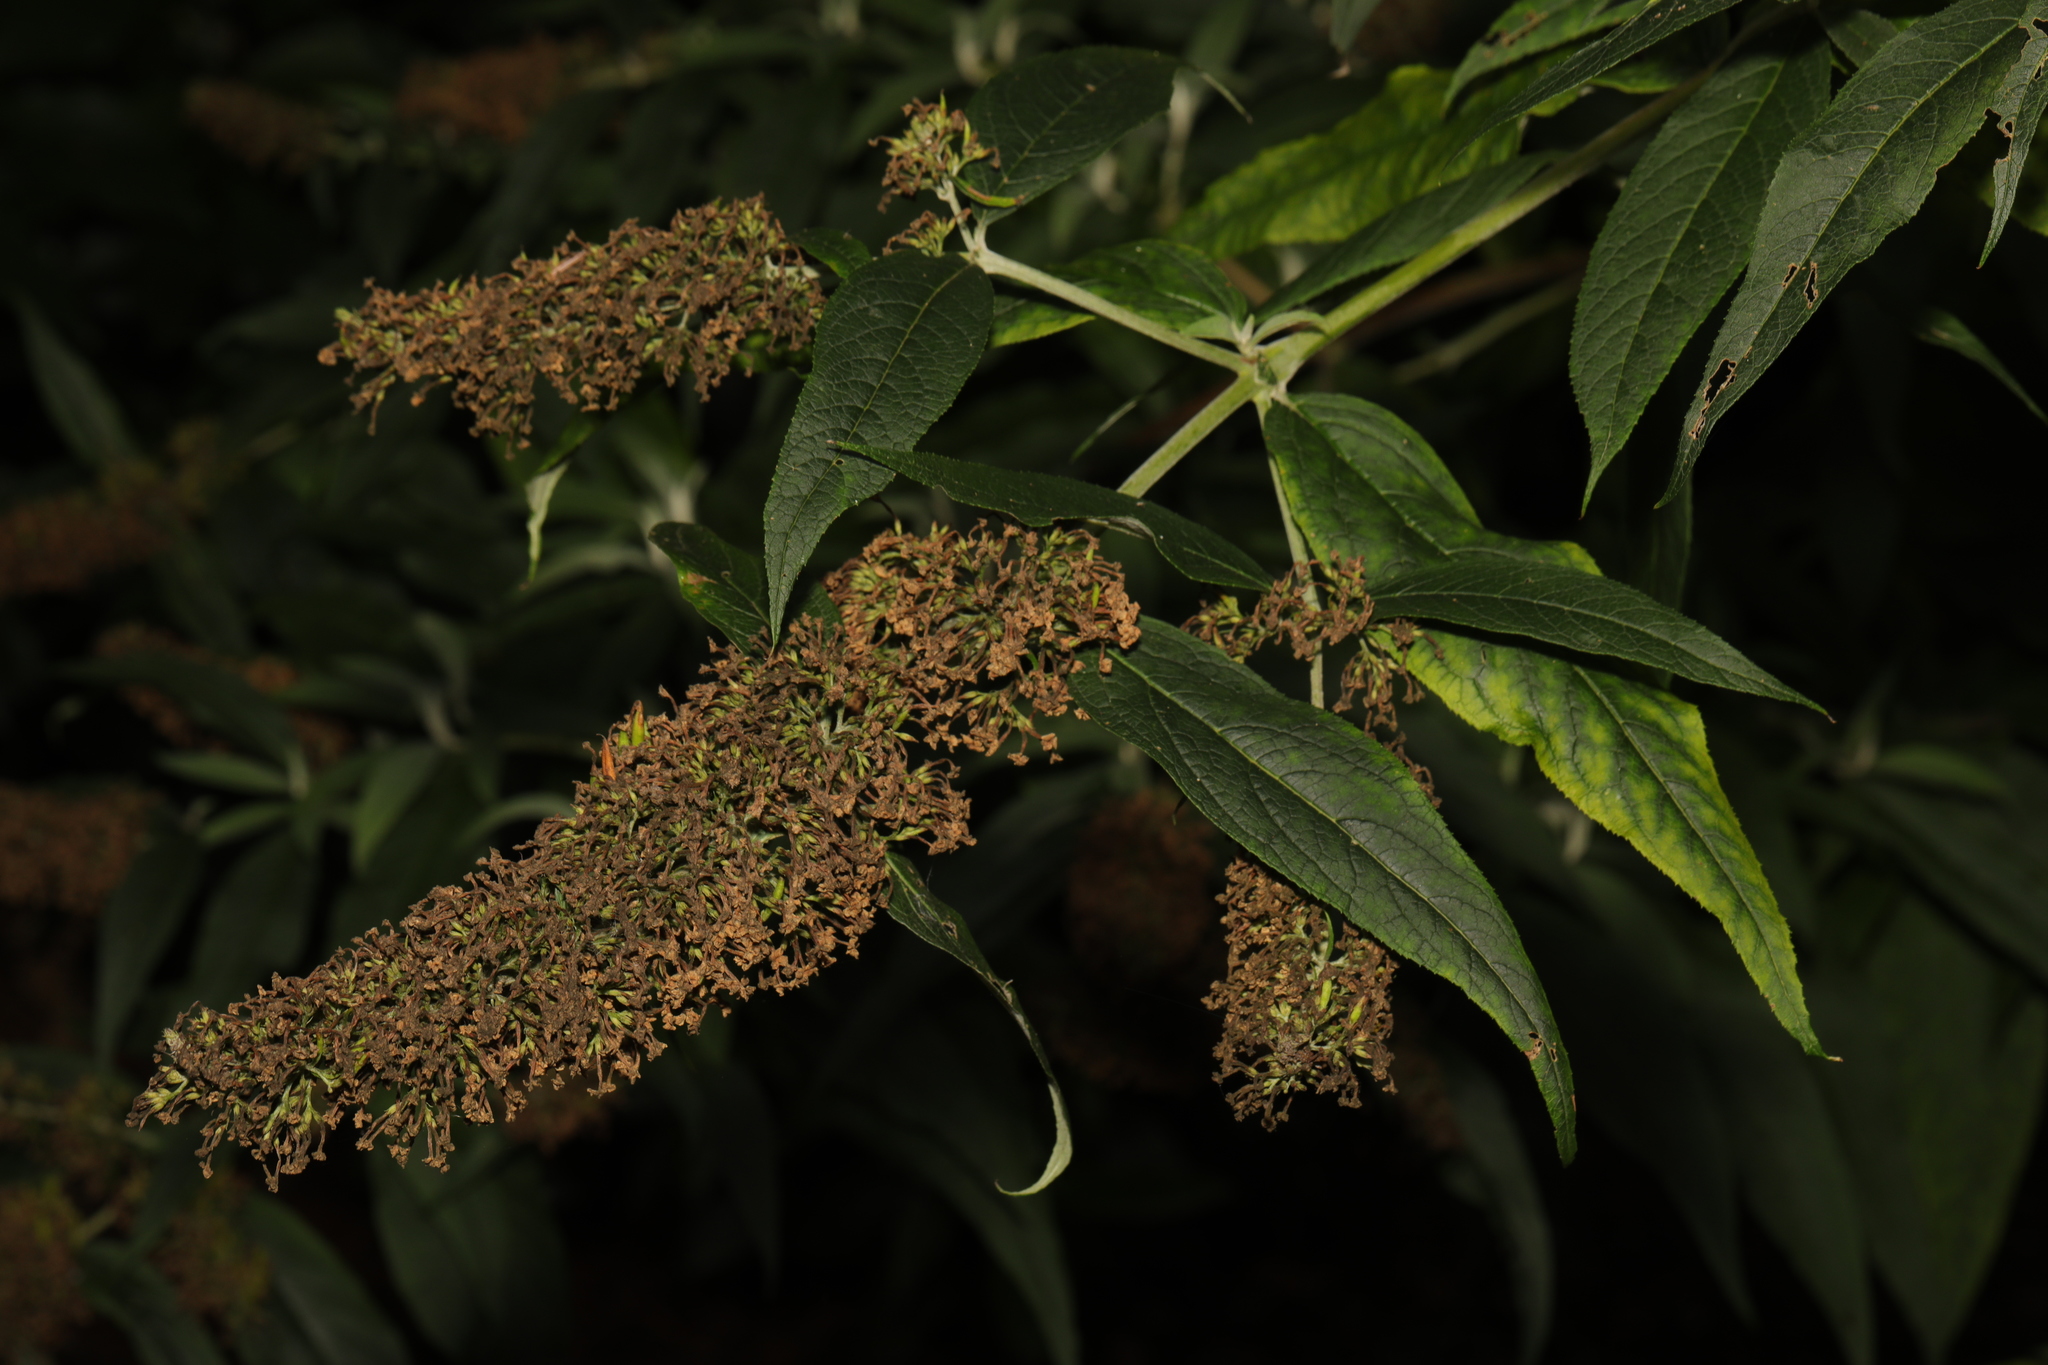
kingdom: Plantae
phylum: Tracheophyta
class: Magnoliopsida
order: Lamiales
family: Scrophulariaceae
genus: Buddleja
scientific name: Buddleja davidii
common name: Butterfly-bush
